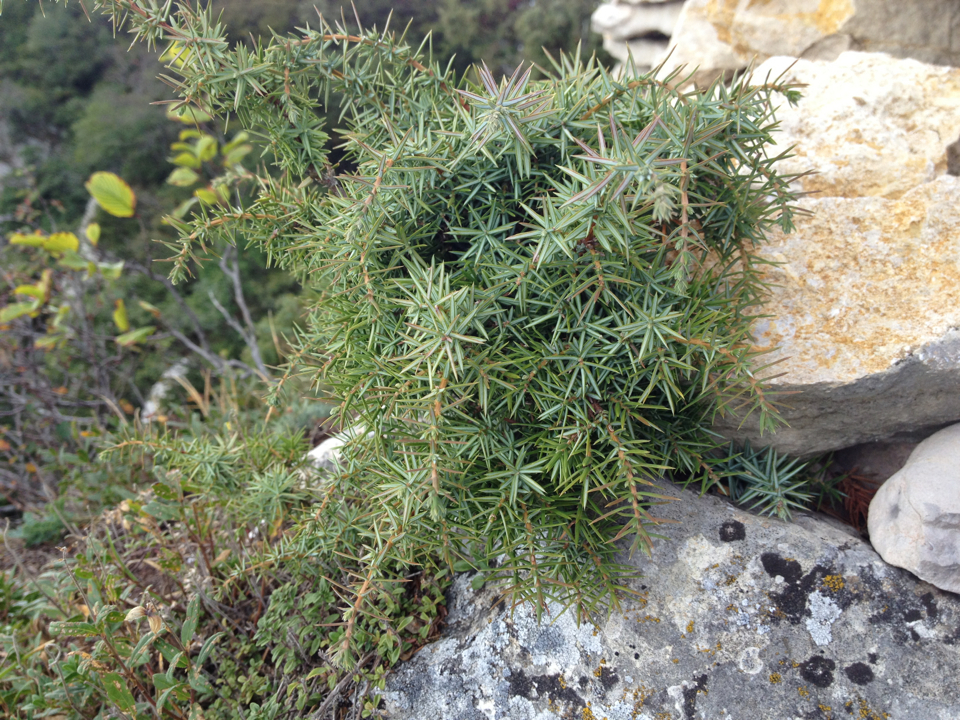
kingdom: Plantae
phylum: Tracheophyta
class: Pinopsida
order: Pinales
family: Cupressaceae
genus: Juniperus
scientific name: Juniperus communis
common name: Common juniper
